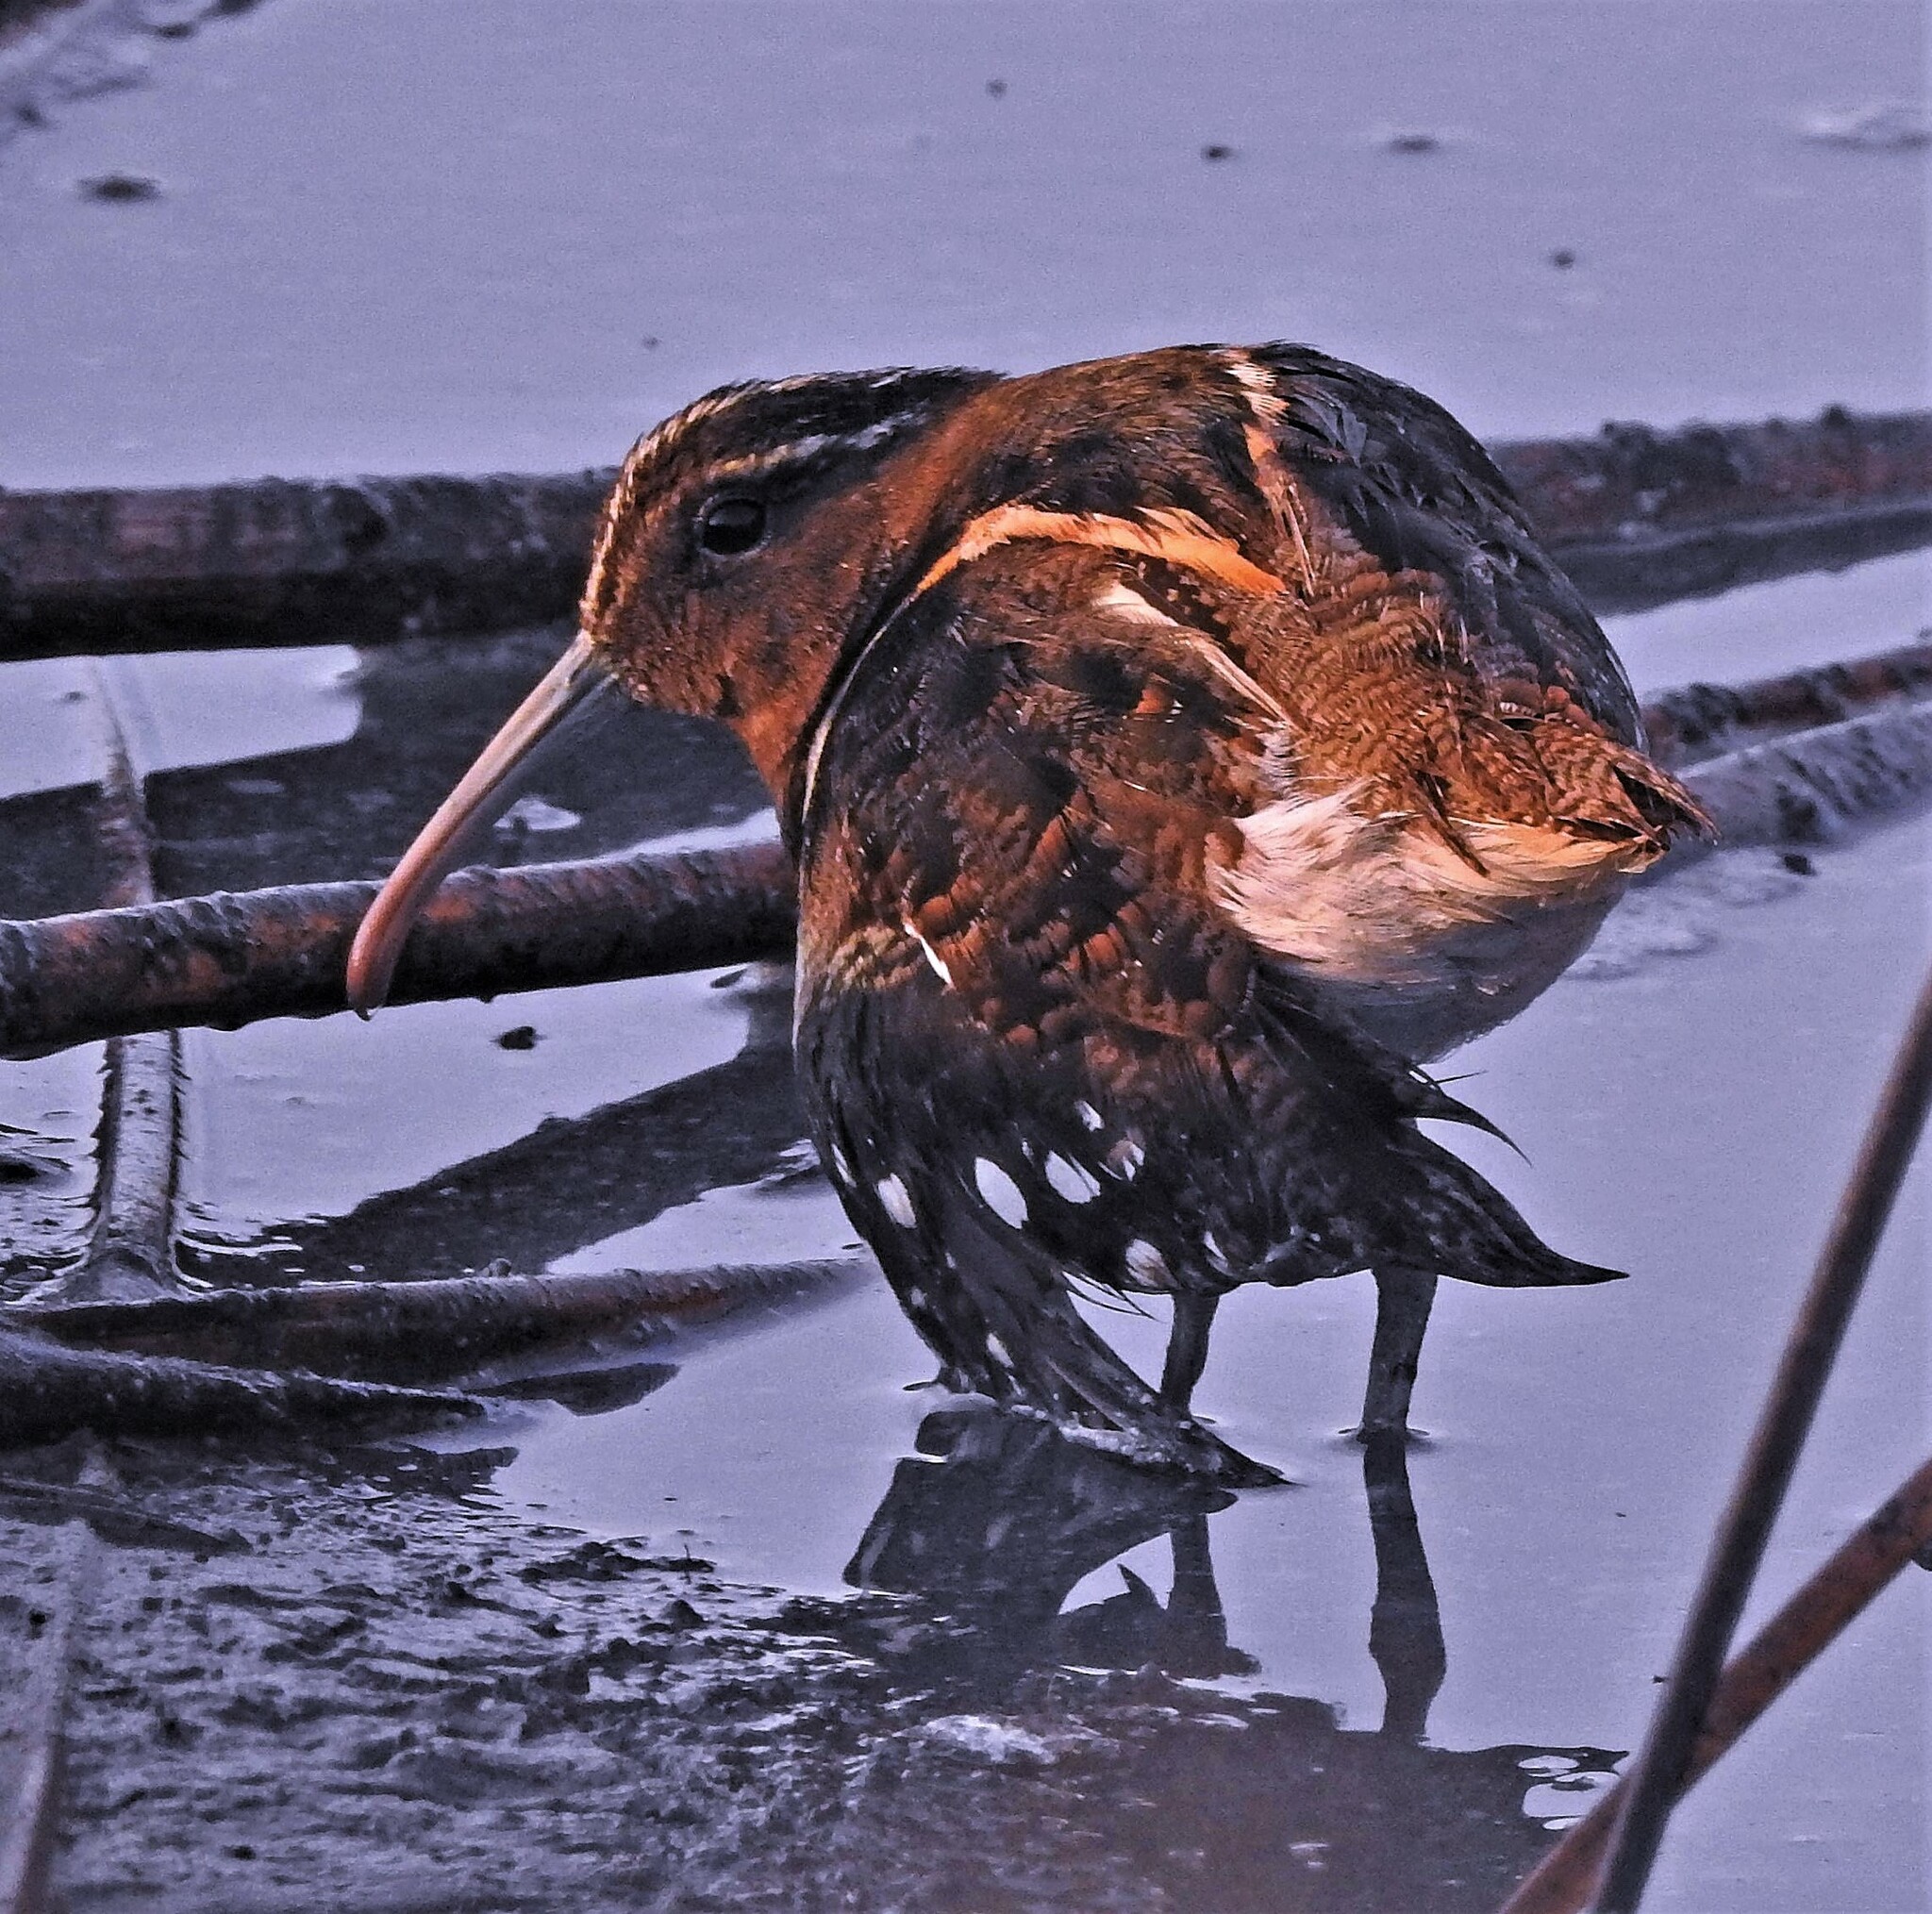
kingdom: Animalia
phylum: Chordata
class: Aves
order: Charadriiformes
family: Rostratulidae
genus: Nycticryphes
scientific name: Nycticryphes semicollaris
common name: South american painted-snipe
